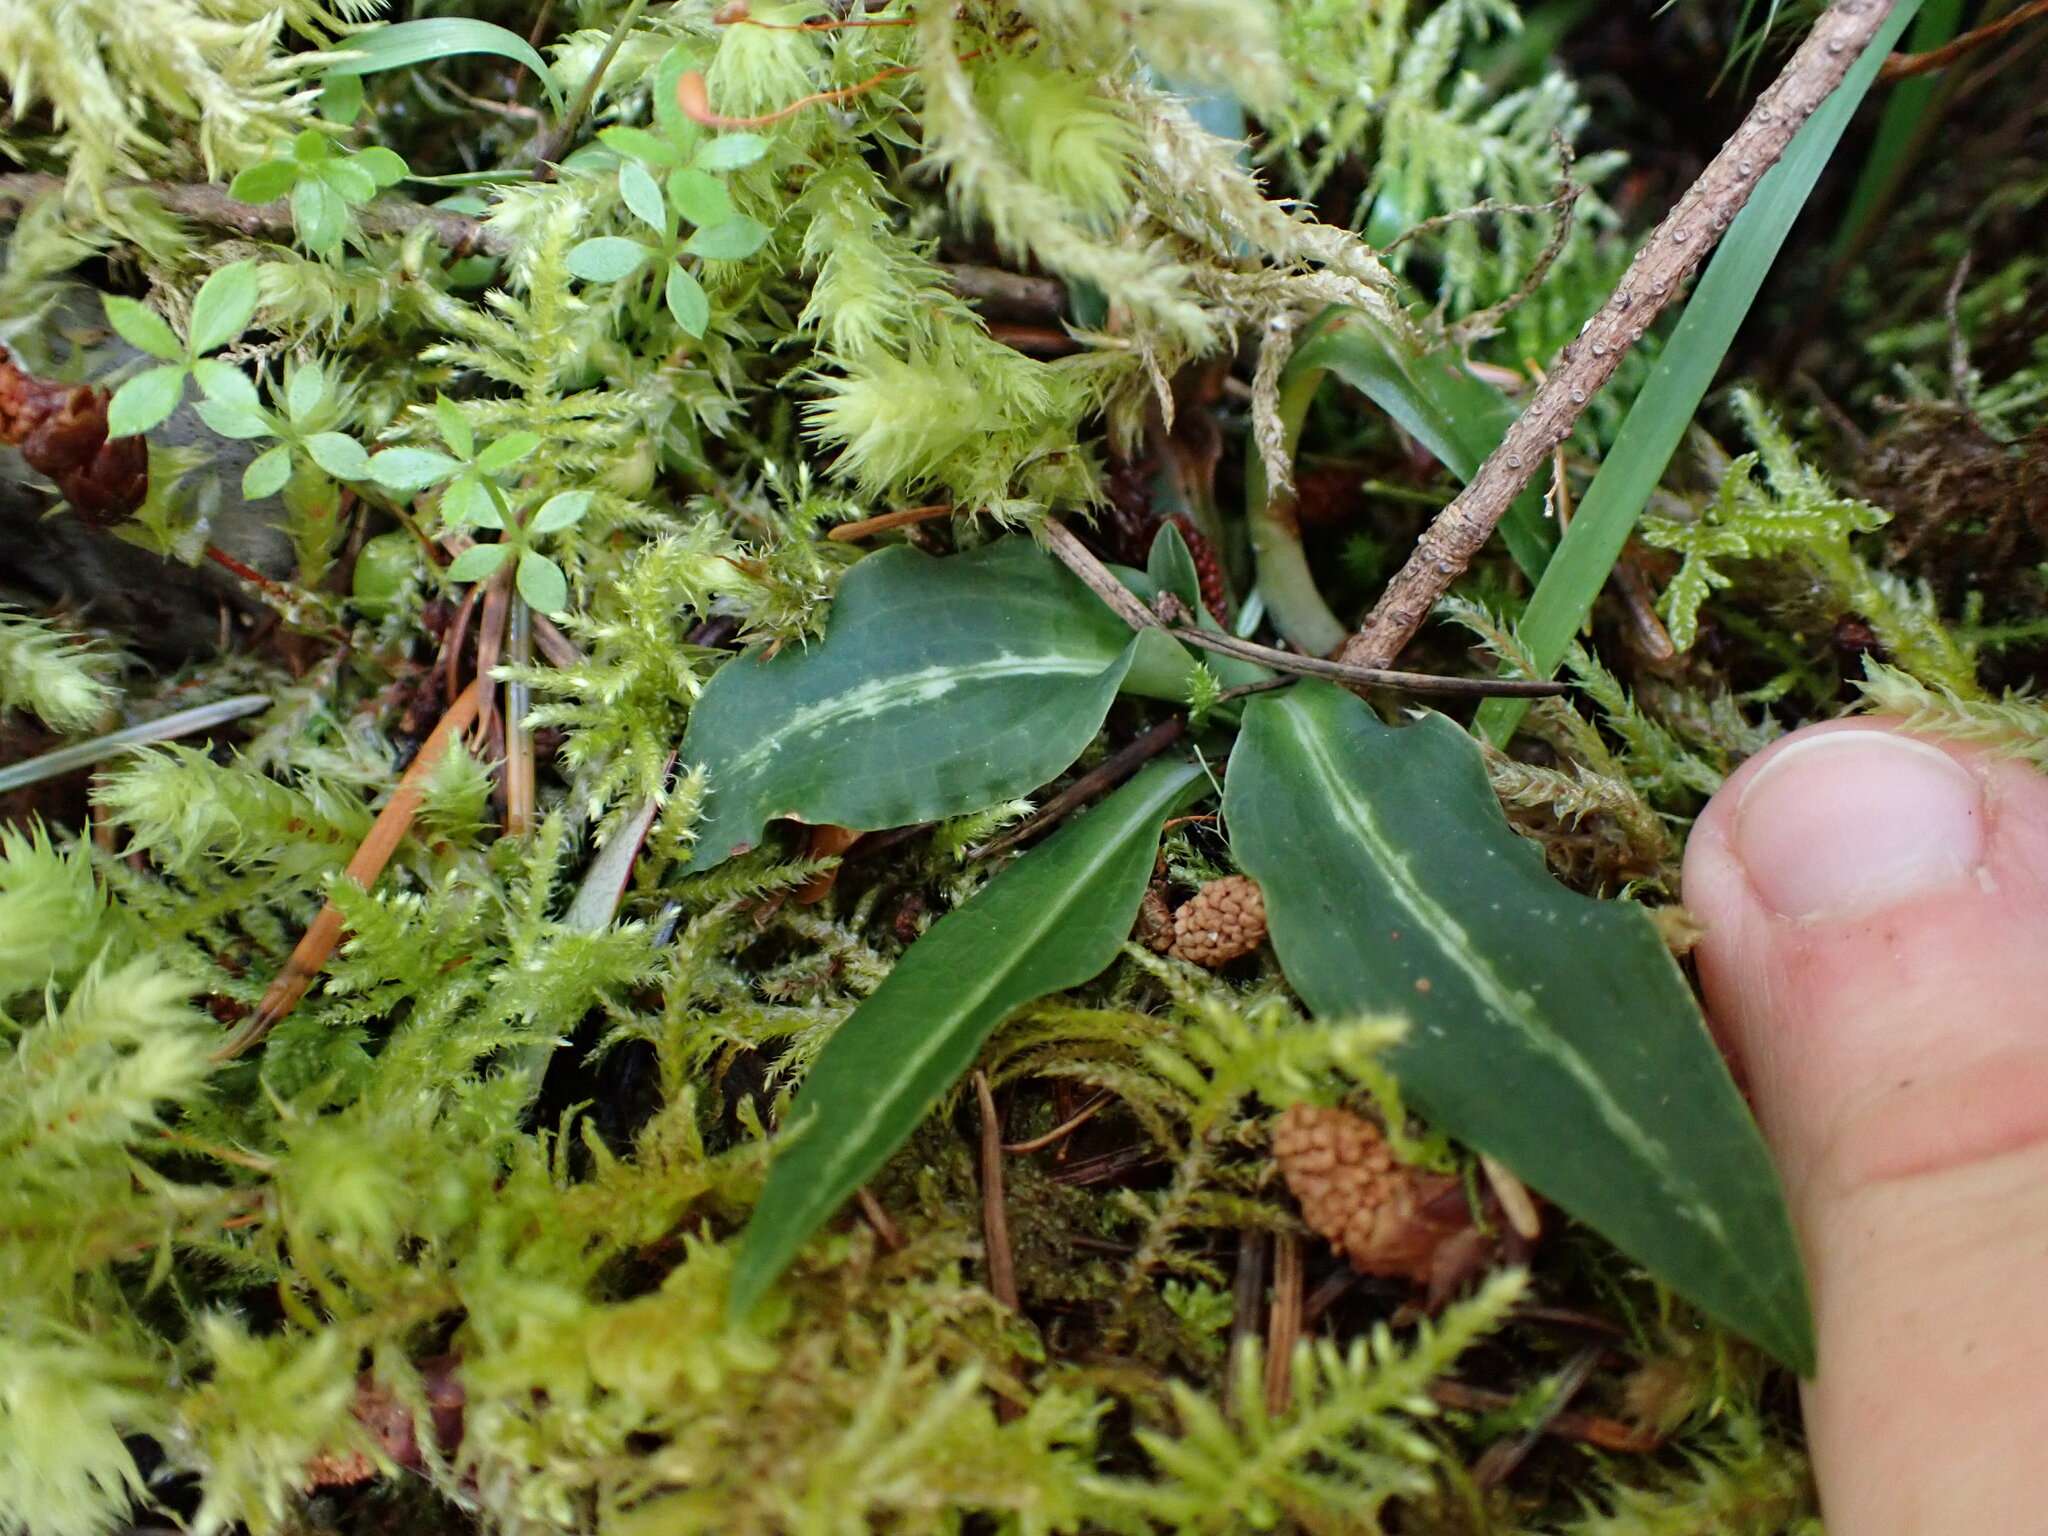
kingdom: Plantae
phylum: Tracheophyta
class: Liliopsida
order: Asparagales
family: Orchidaceae
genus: Goodyera
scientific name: Goodyera oblongifolia
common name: Giant rattlesnake-plantain
